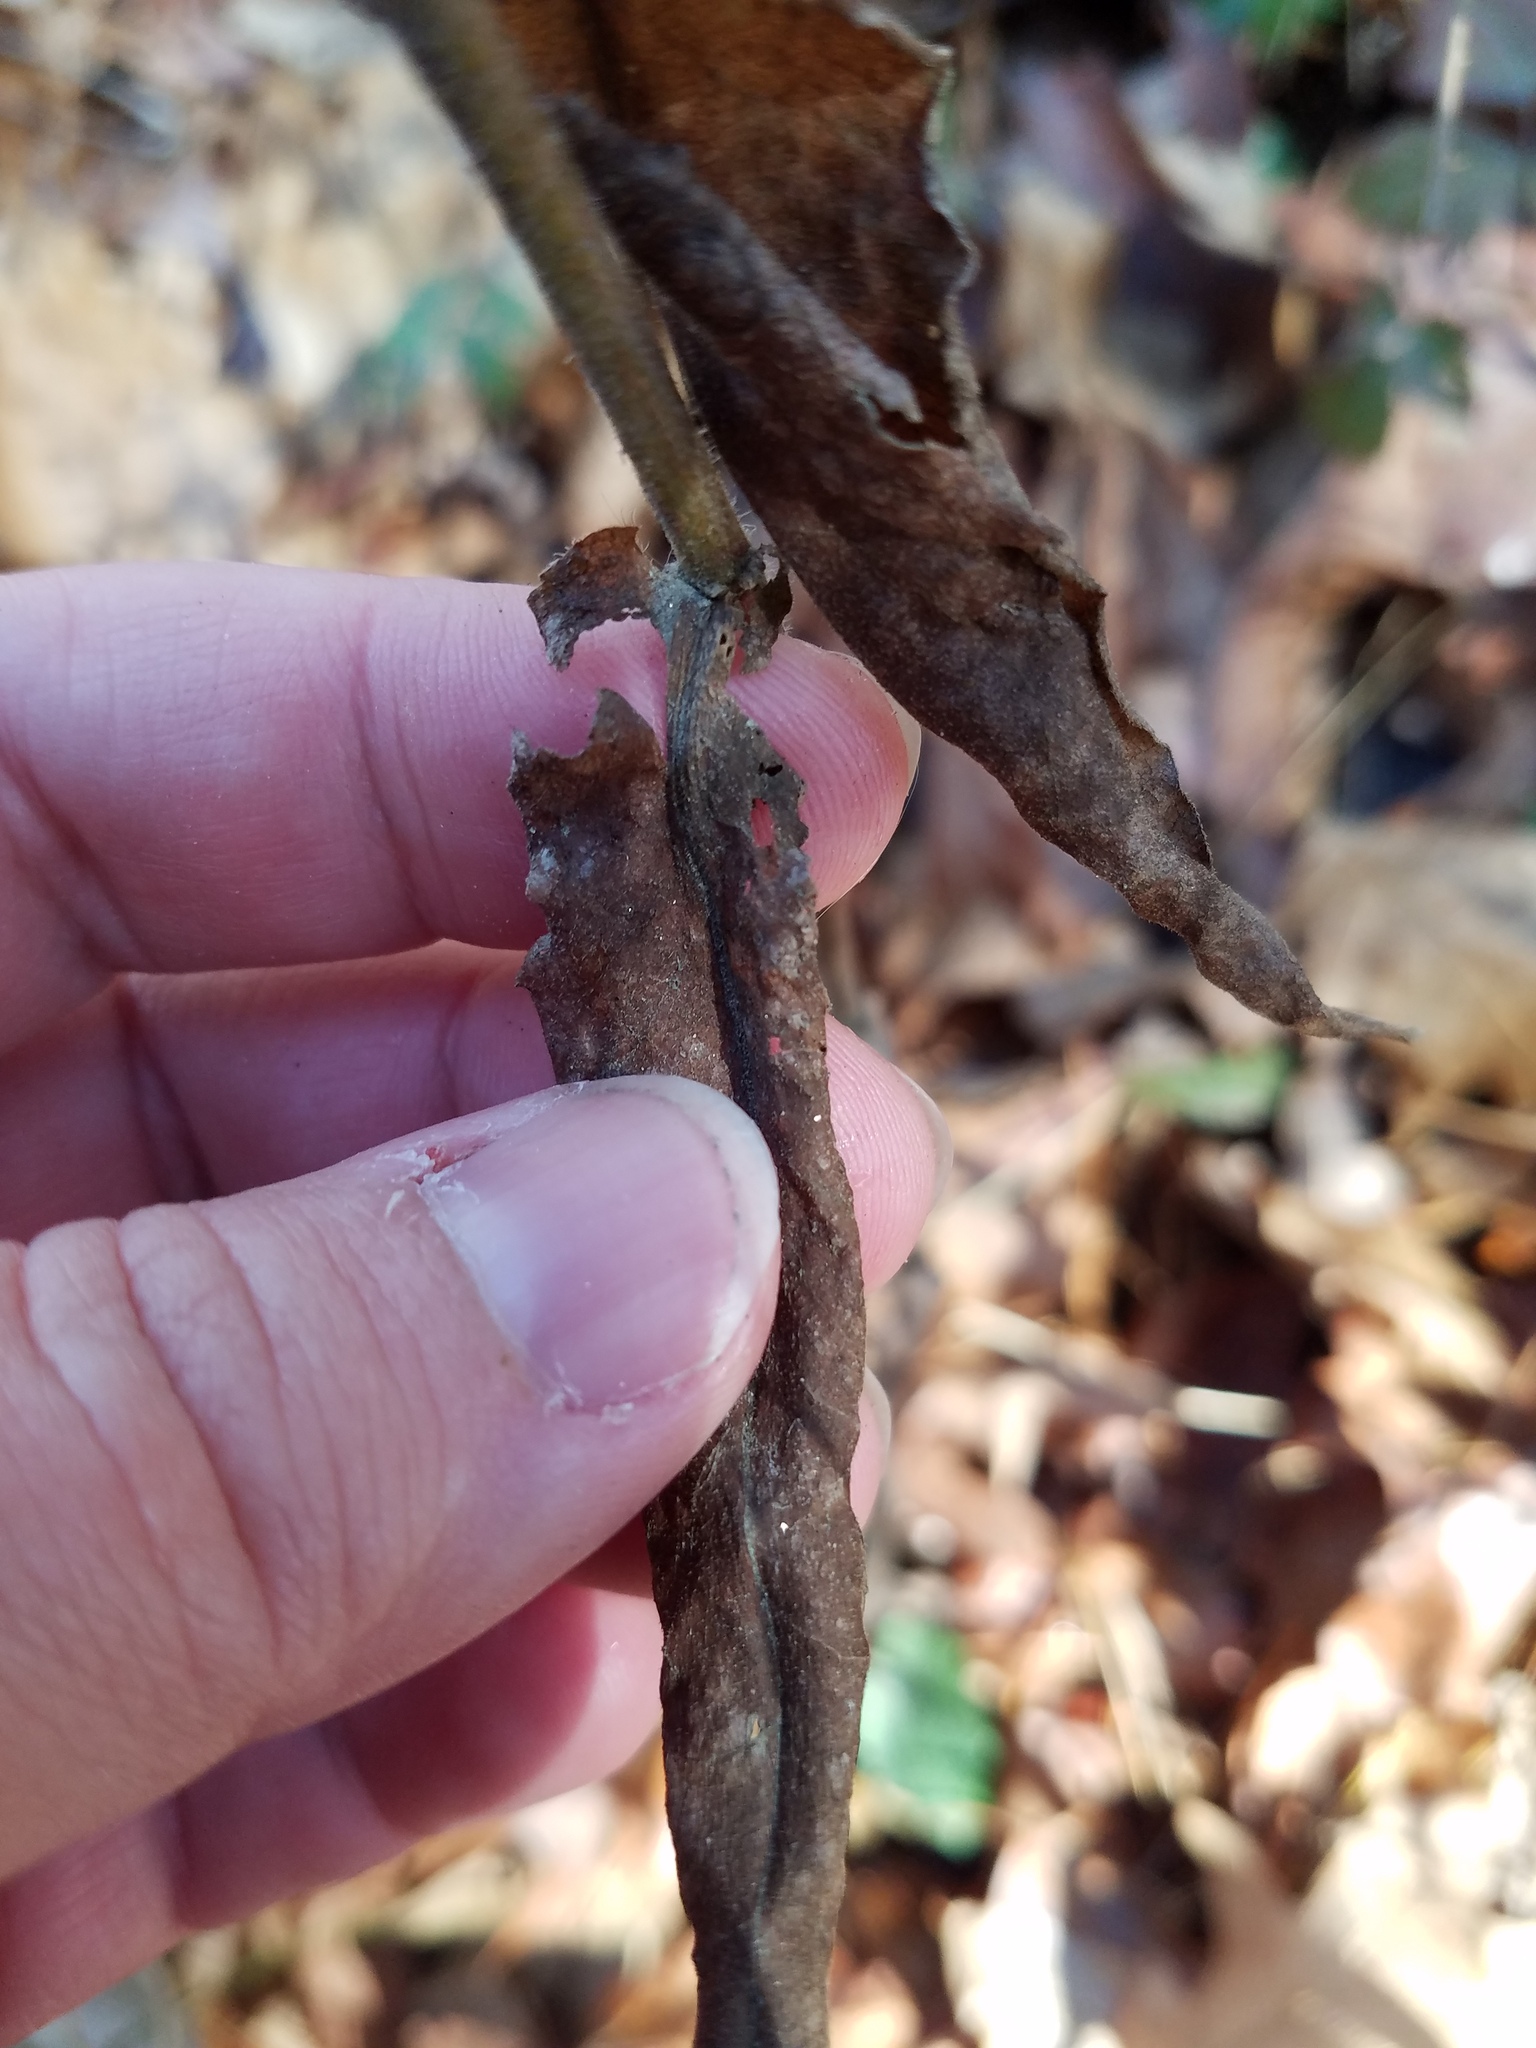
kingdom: Plantae
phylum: Tracheophyta
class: Magnoliopsida
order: Asterales
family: Asteraceae
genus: Symphyotrichum
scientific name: Symphyotrichum cordifolium
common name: Beeweed
